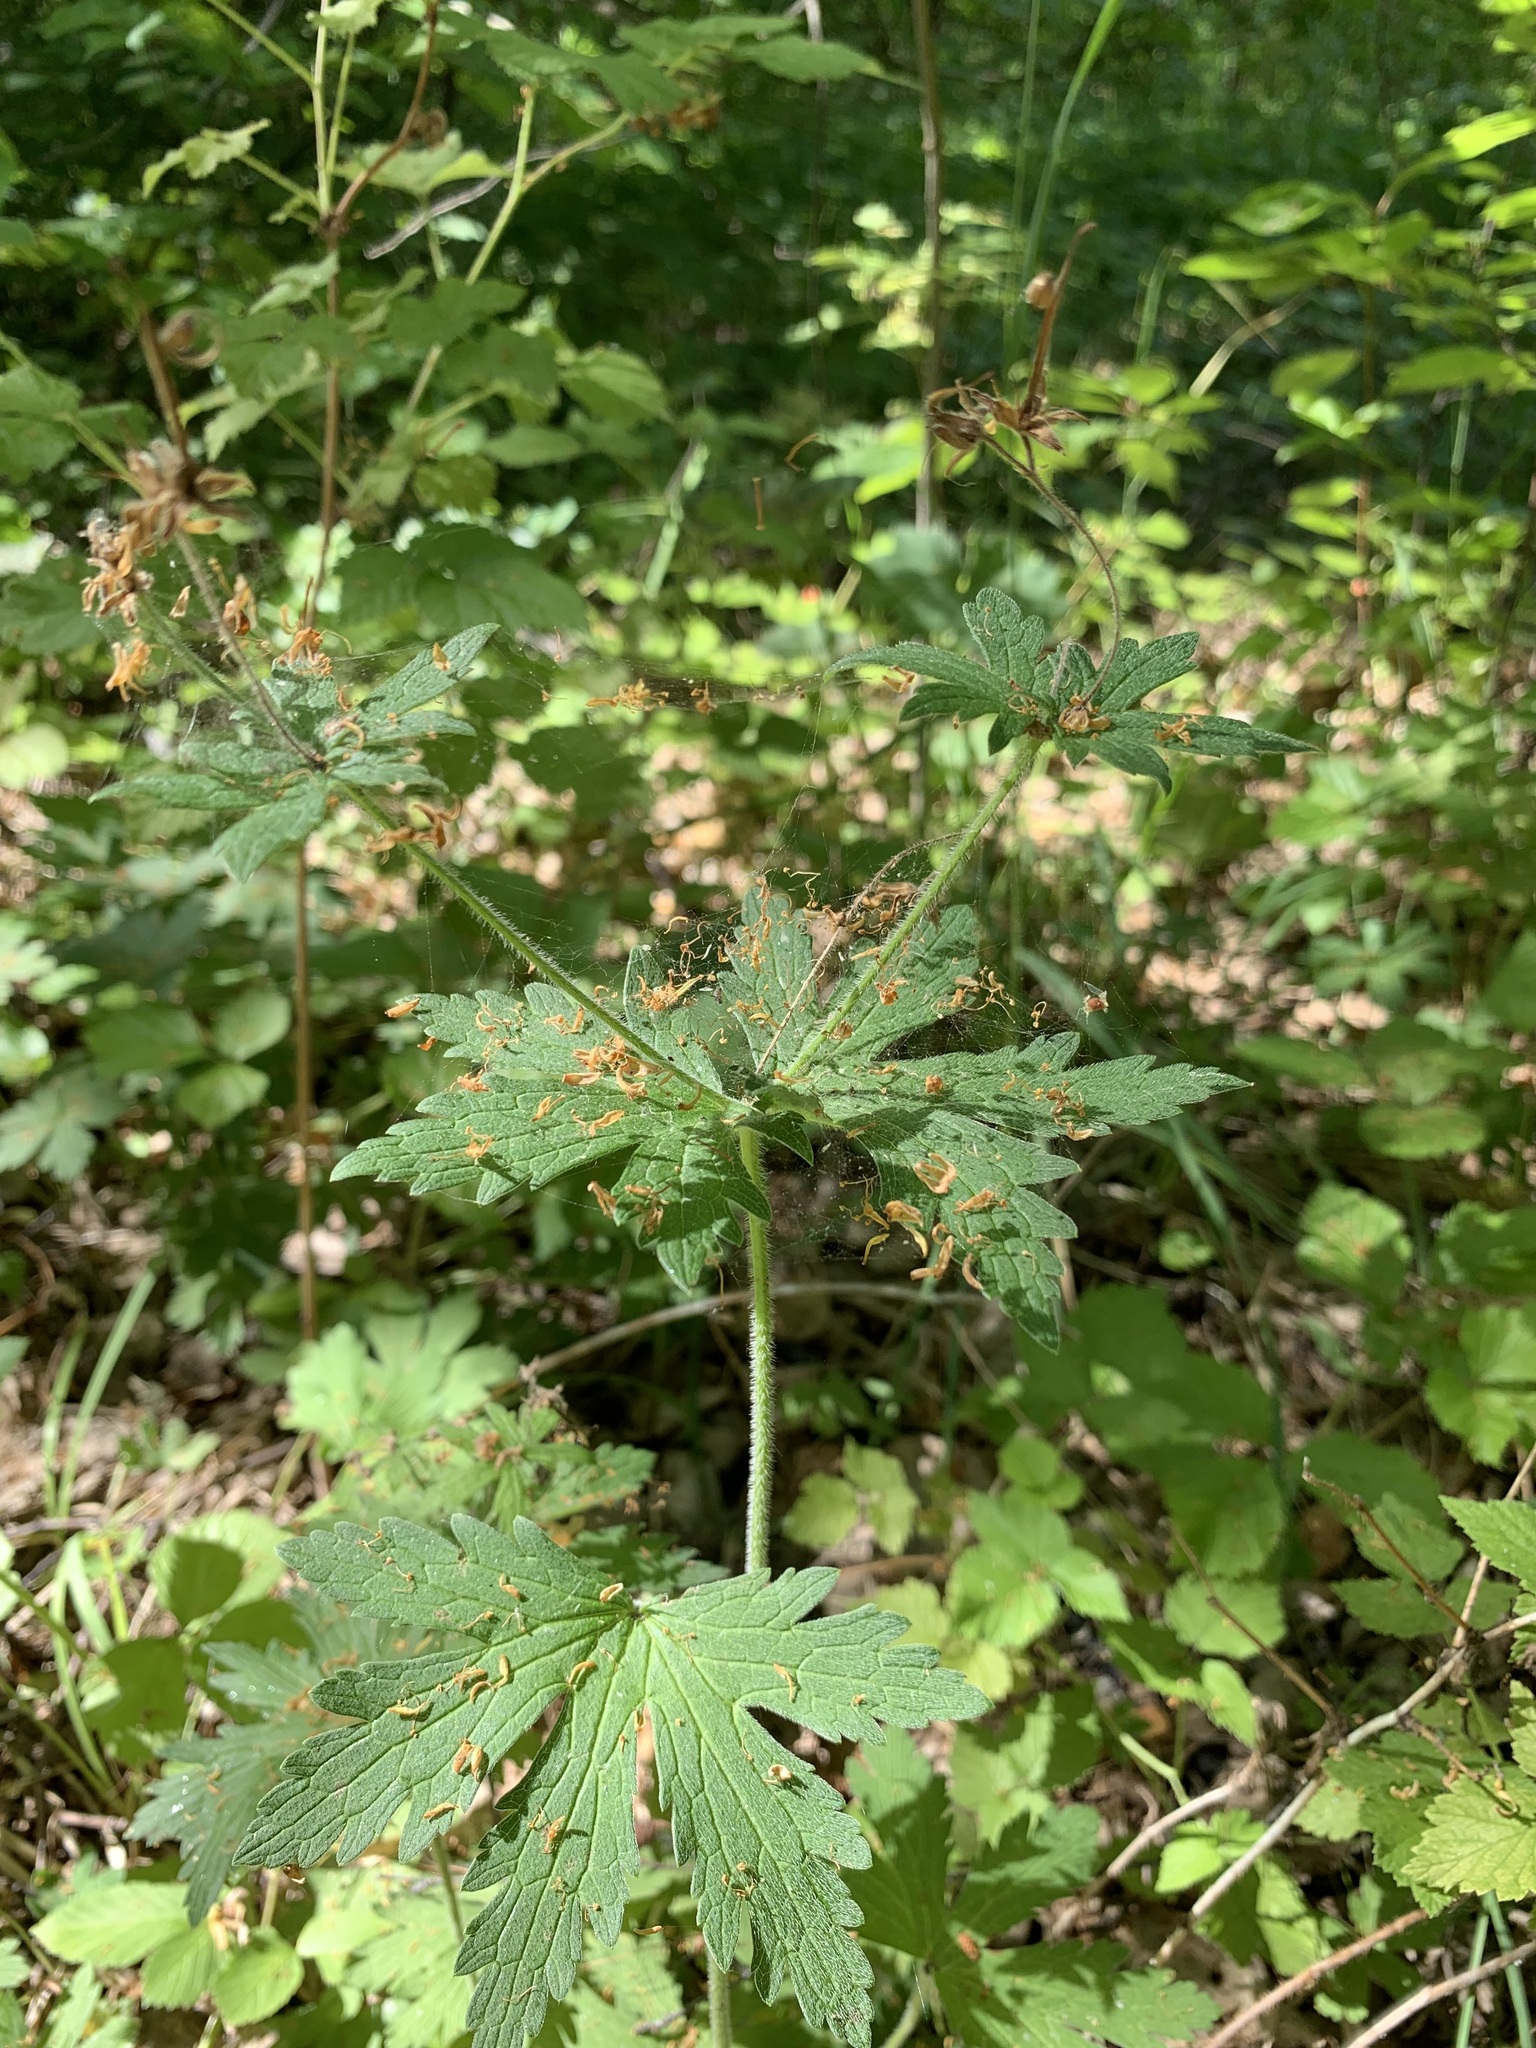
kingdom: Plantae
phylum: Tracheophyta
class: Magnoliopsida
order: Geraniales
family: Geraniaceae
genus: Geranium
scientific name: Geranium sylvaticum
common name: Wood crane's-bill
